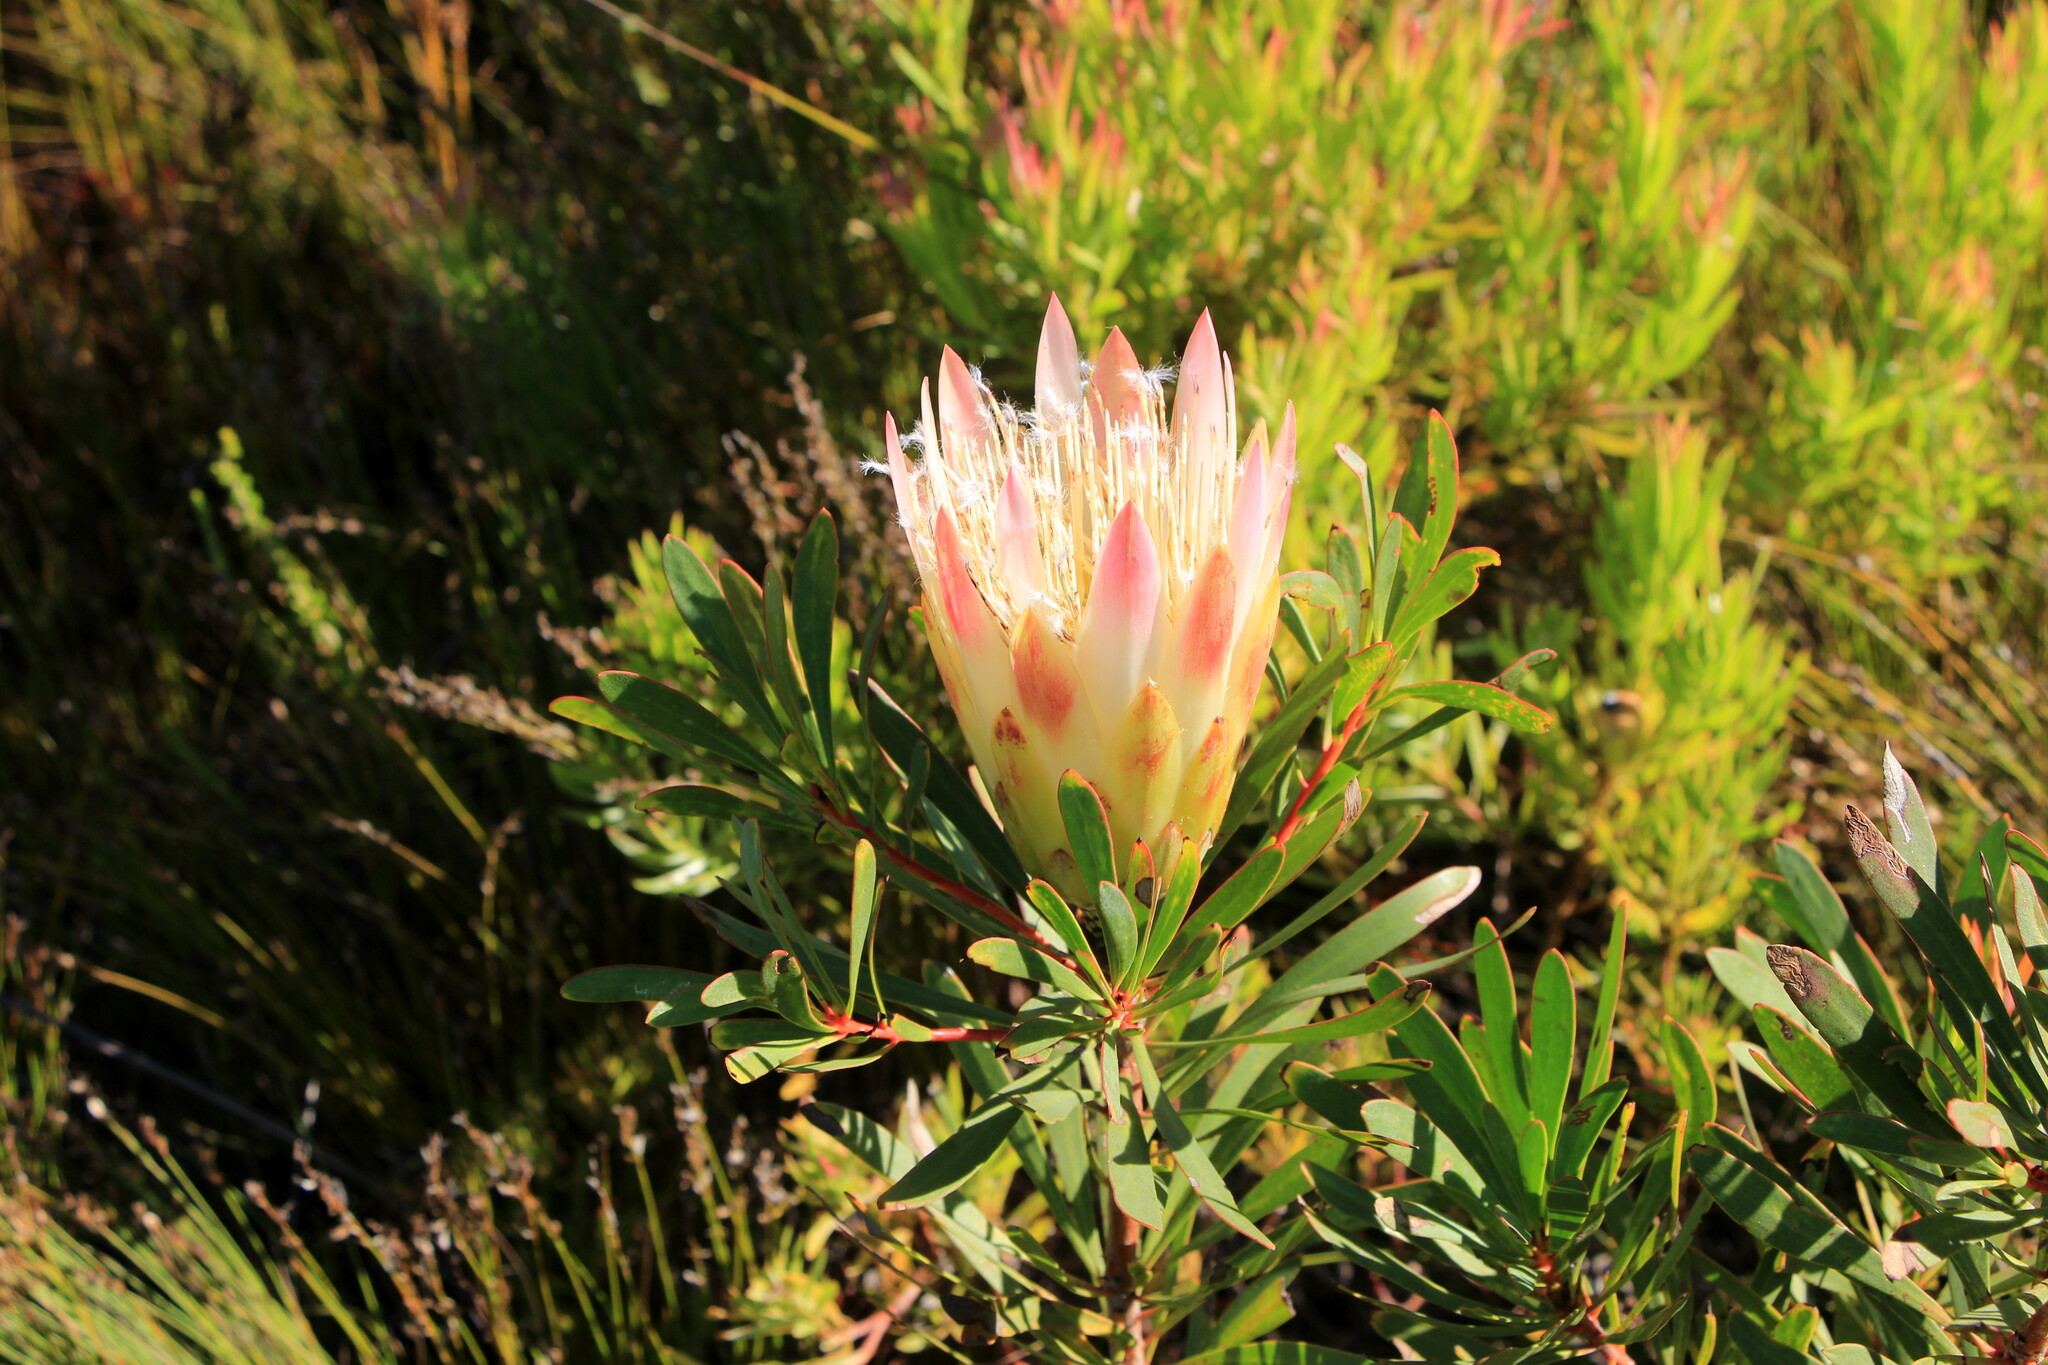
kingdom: Plantae
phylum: Tracheophyta
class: Magnoliopsida
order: Proteales
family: Proteaceae
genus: Protea
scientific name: Protea repens
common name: Sugarbush
